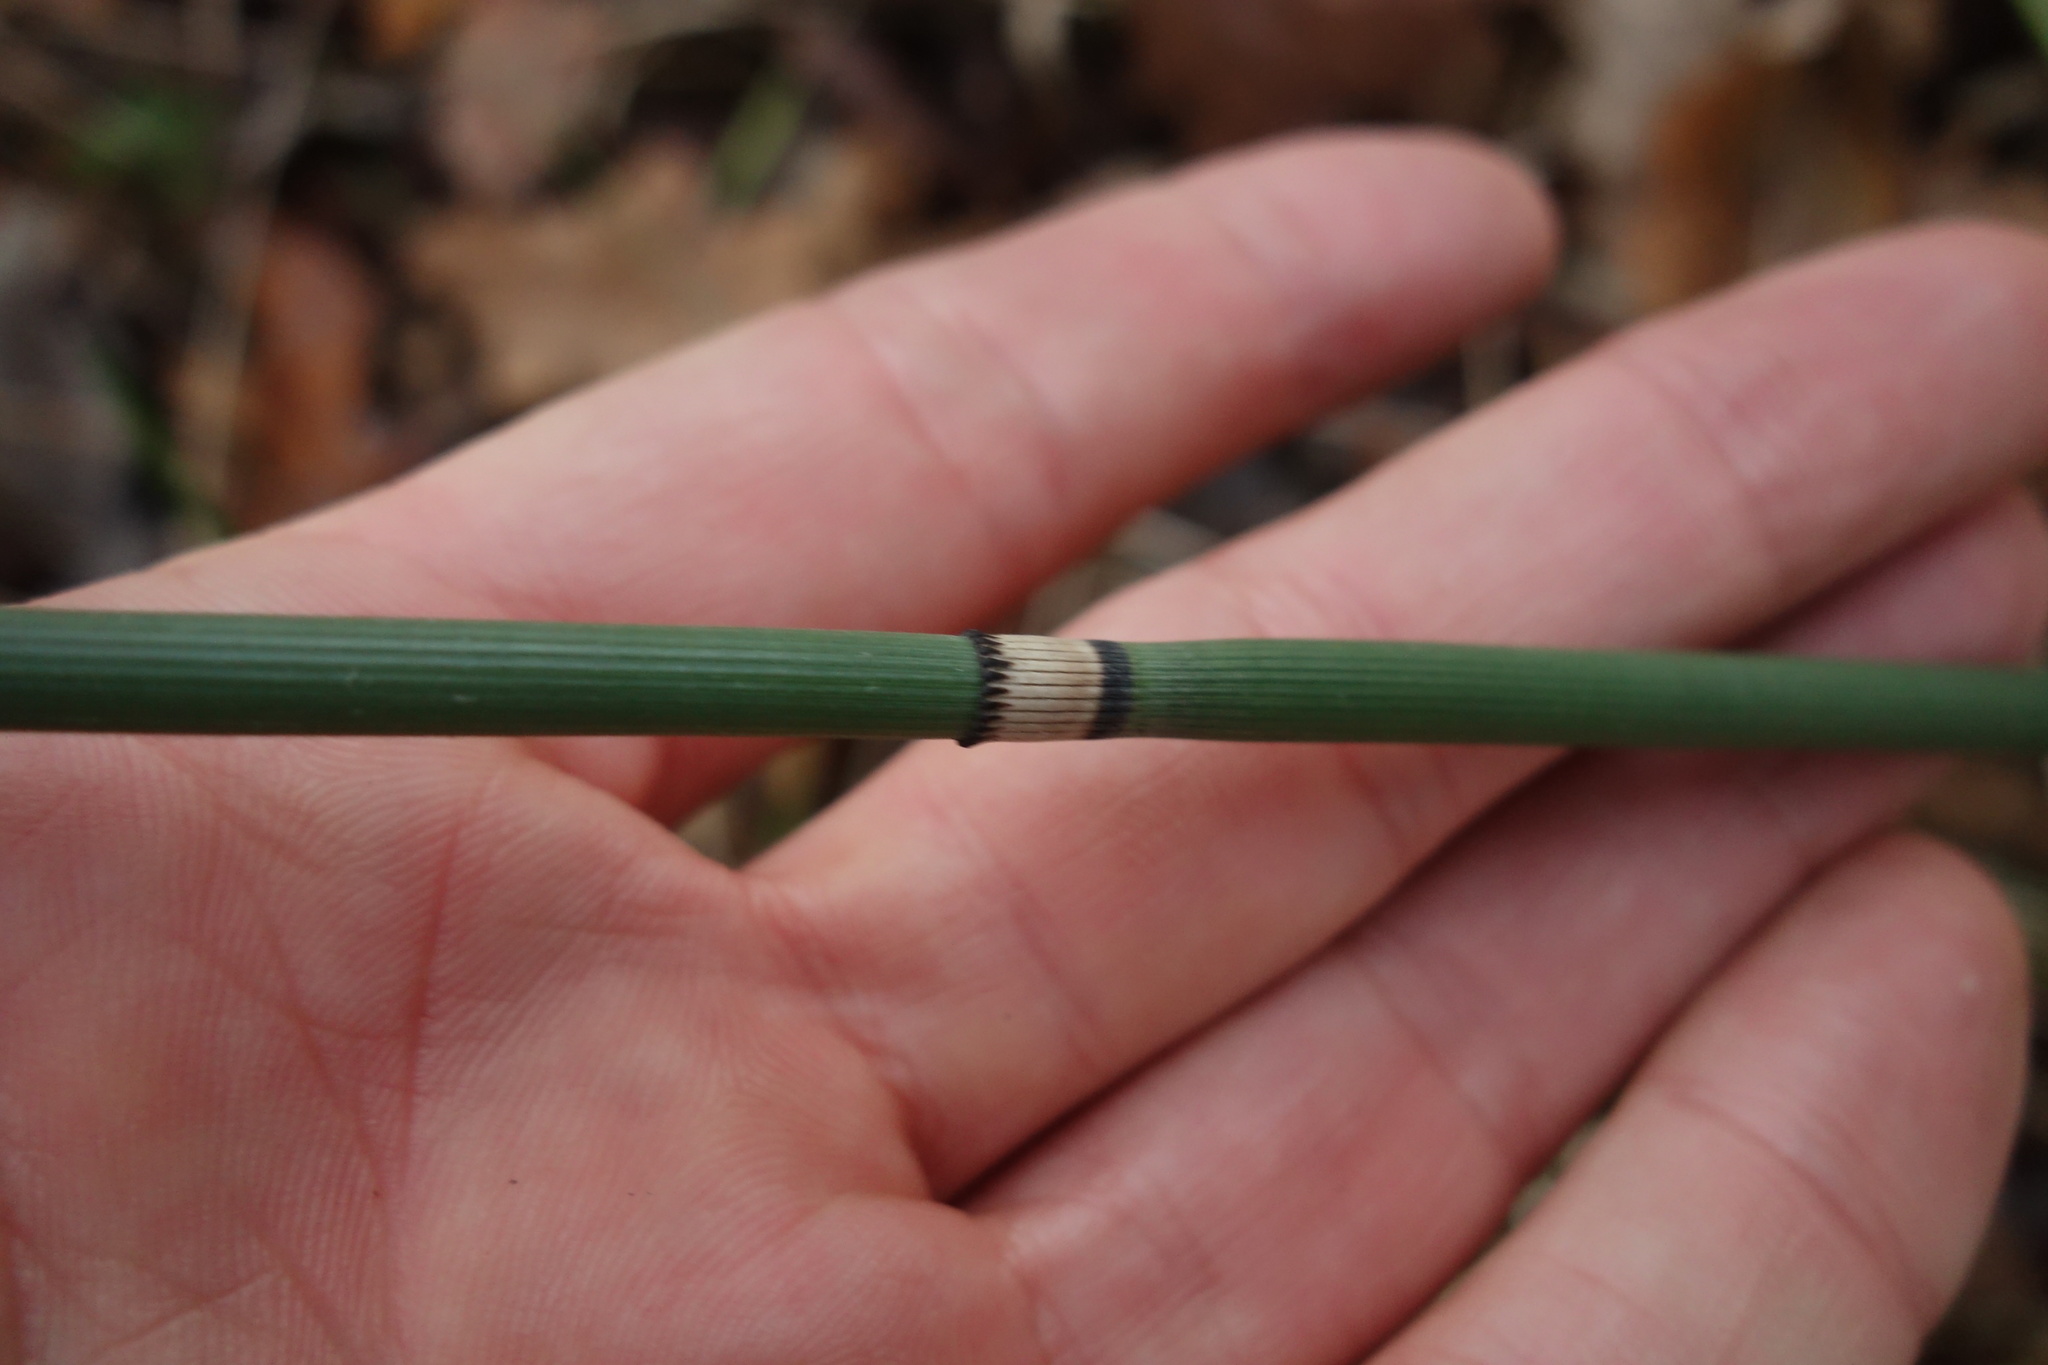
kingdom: Plantae
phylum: Tracheophyta
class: Polypodiopsida
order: Equisetales
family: Equisetaceae
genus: Equisetum
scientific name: Equisetum hyemale
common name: Rough horsetail
